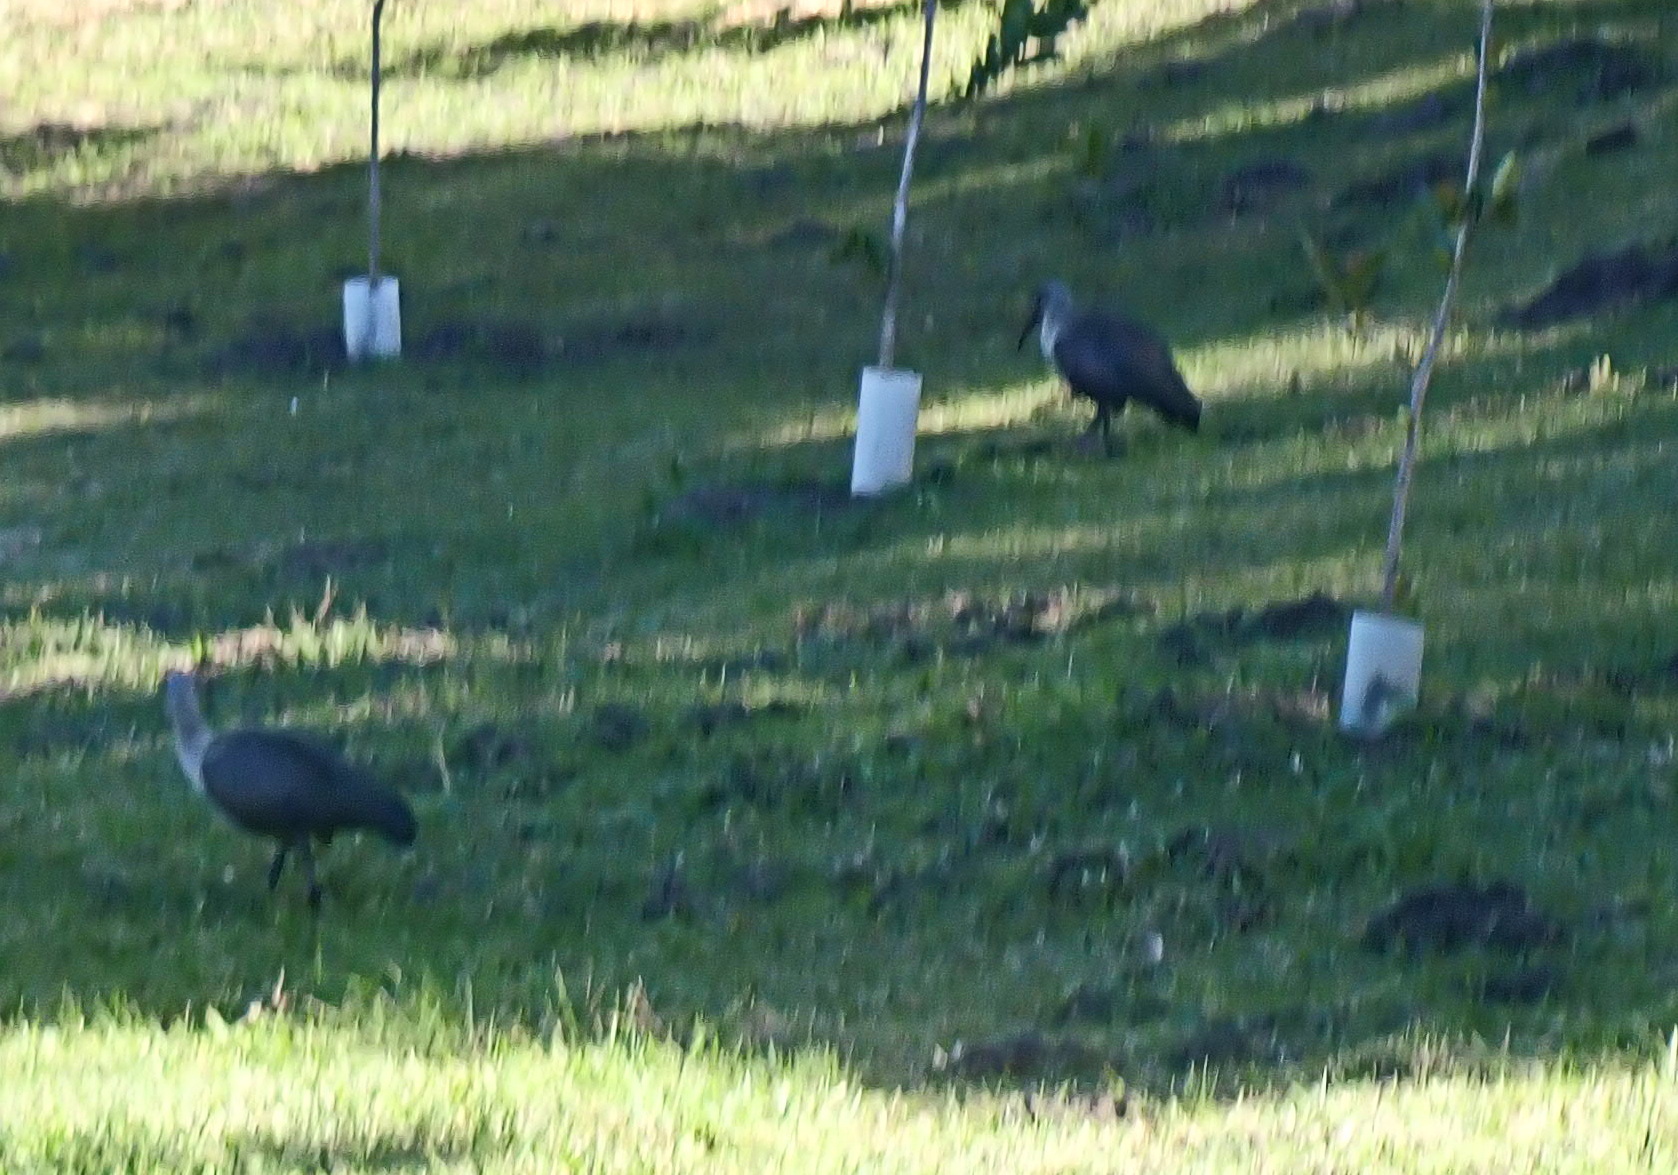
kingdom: Animalia
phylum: Chordata
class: Aves
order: Pelecaniformes
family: Threskiornithidae
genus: Bostrychia
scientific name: Bostrychia hagedash
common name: Hadada ibis
